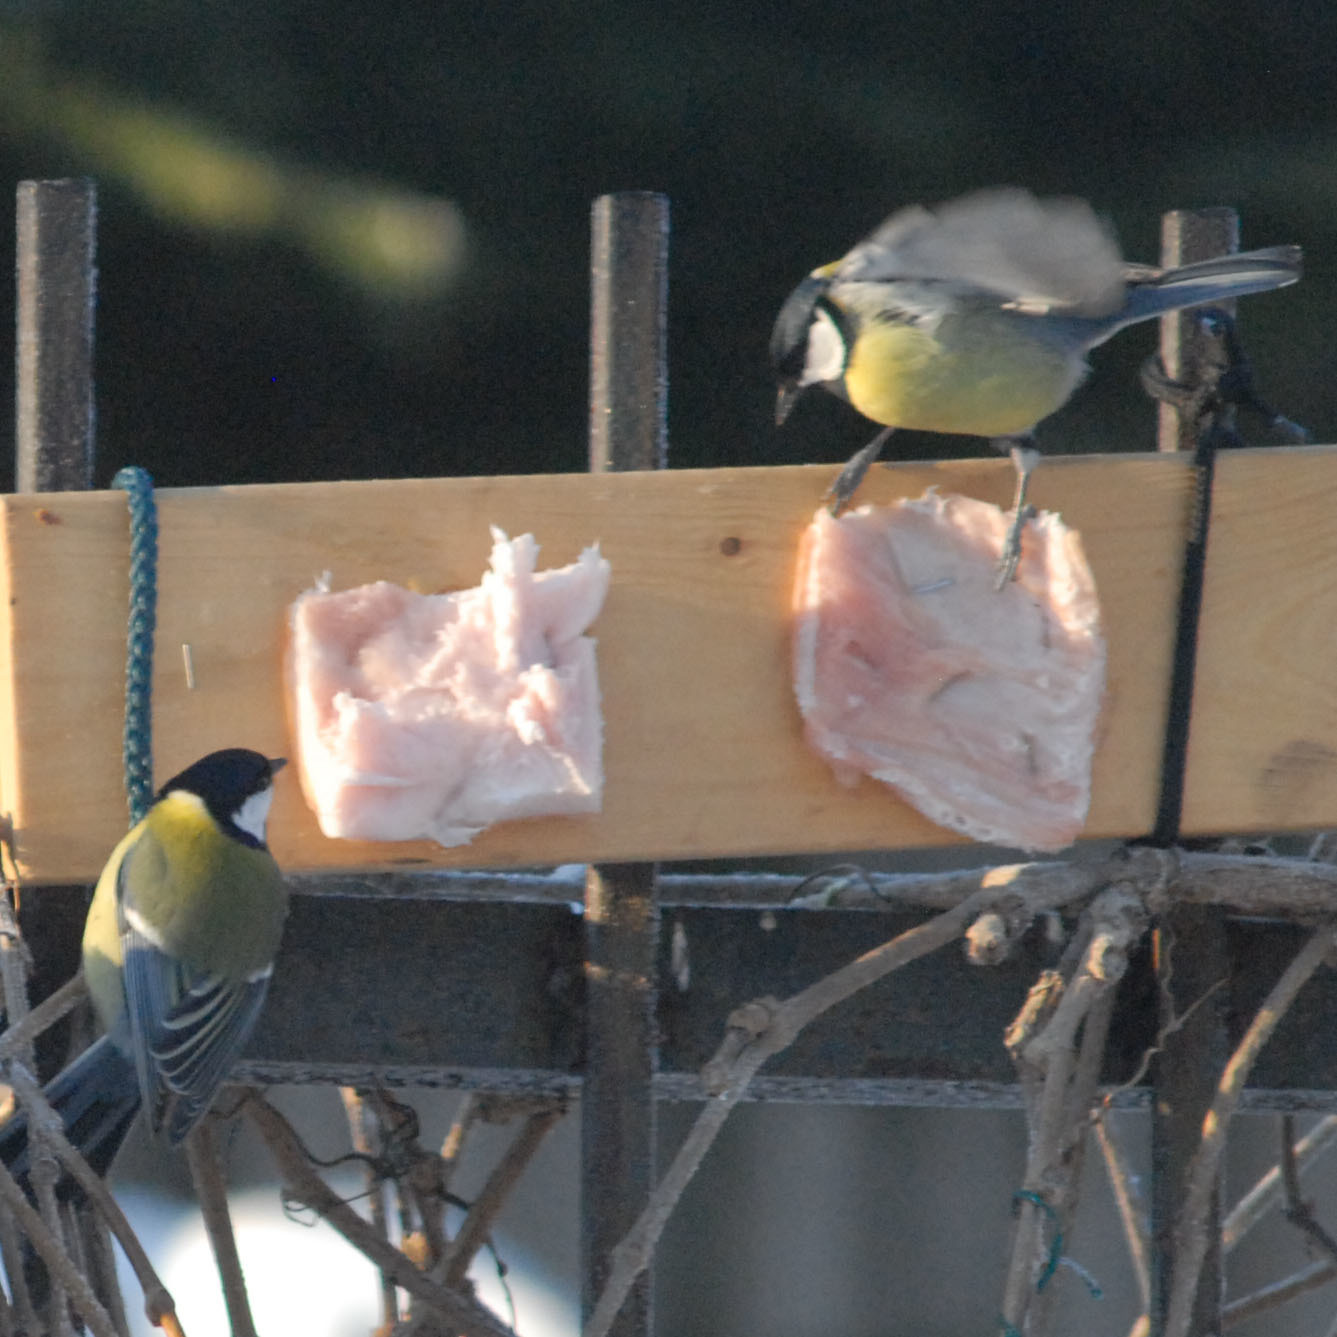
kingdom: Animalia
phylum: Chordata
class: Aves
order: Passeriformes
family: Paridae
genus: Parus
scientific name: Parus major
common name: Great tit
